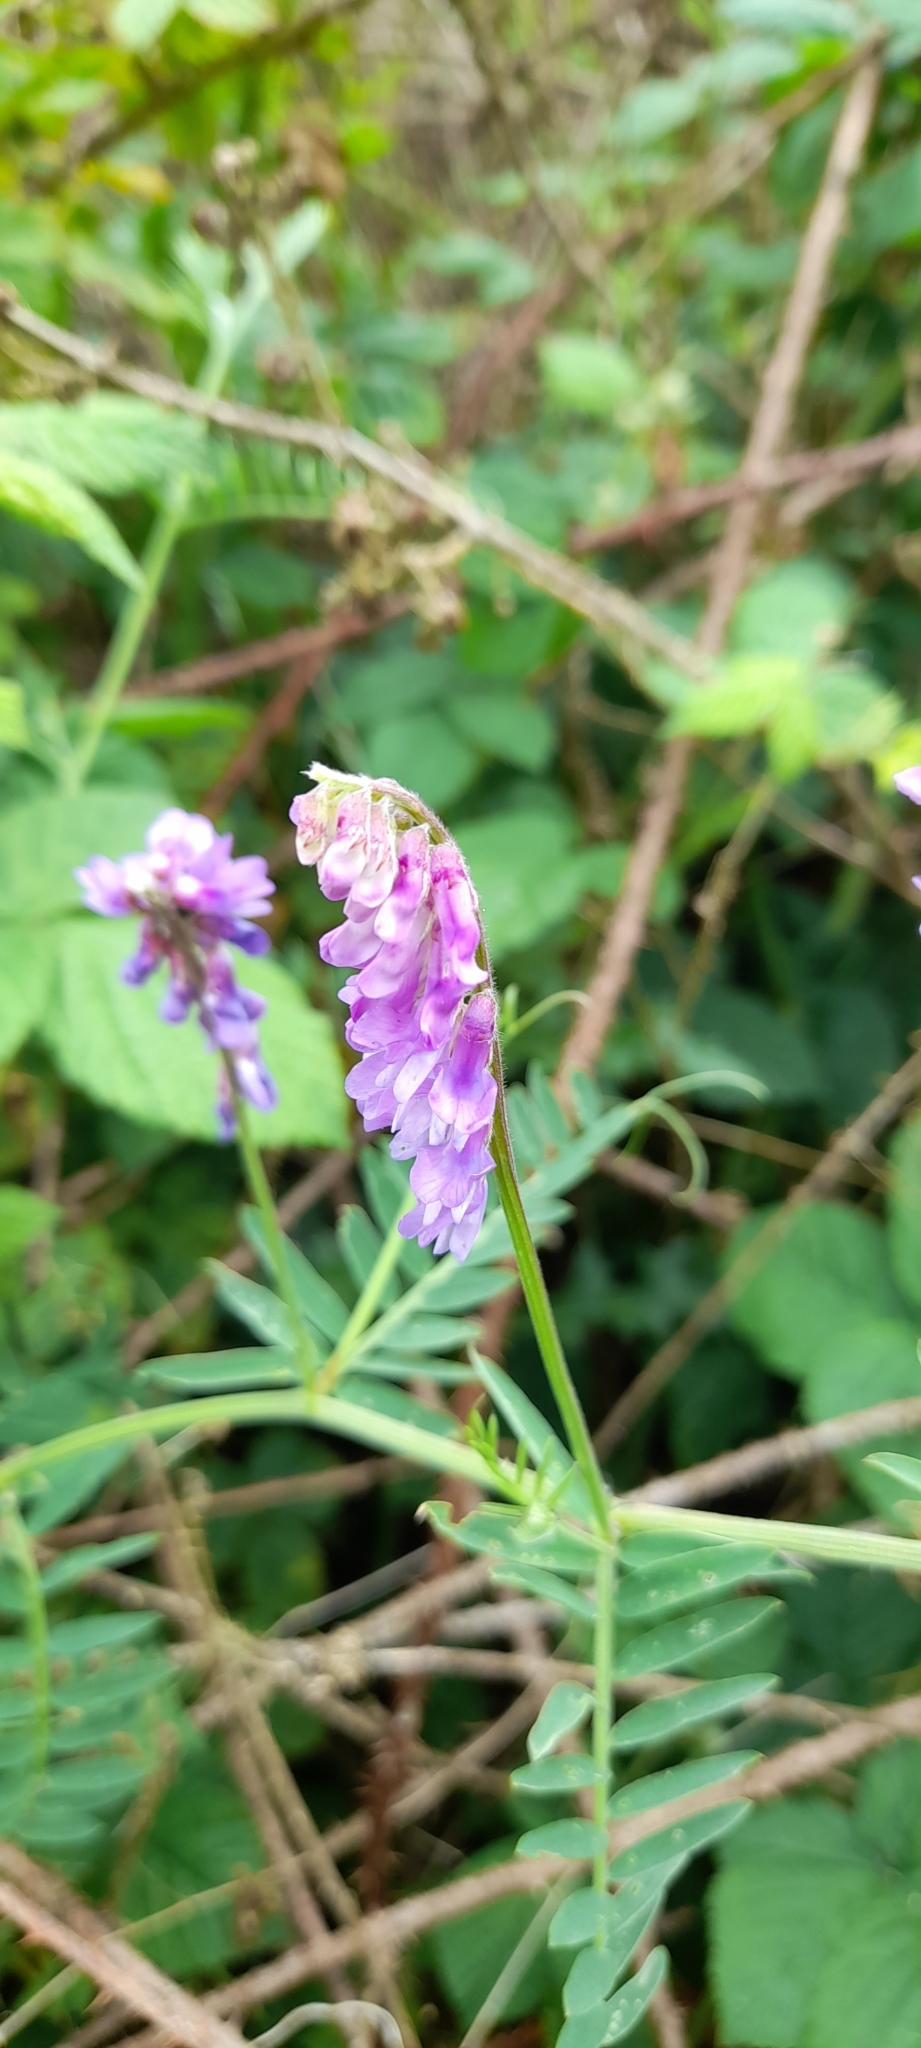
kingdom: Plantae
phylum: Tracheophyta
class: Magnoliopsida
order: Fabales
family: Fabaceae
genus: Vicia
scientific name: Vicia cracca
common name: Bird vetch
